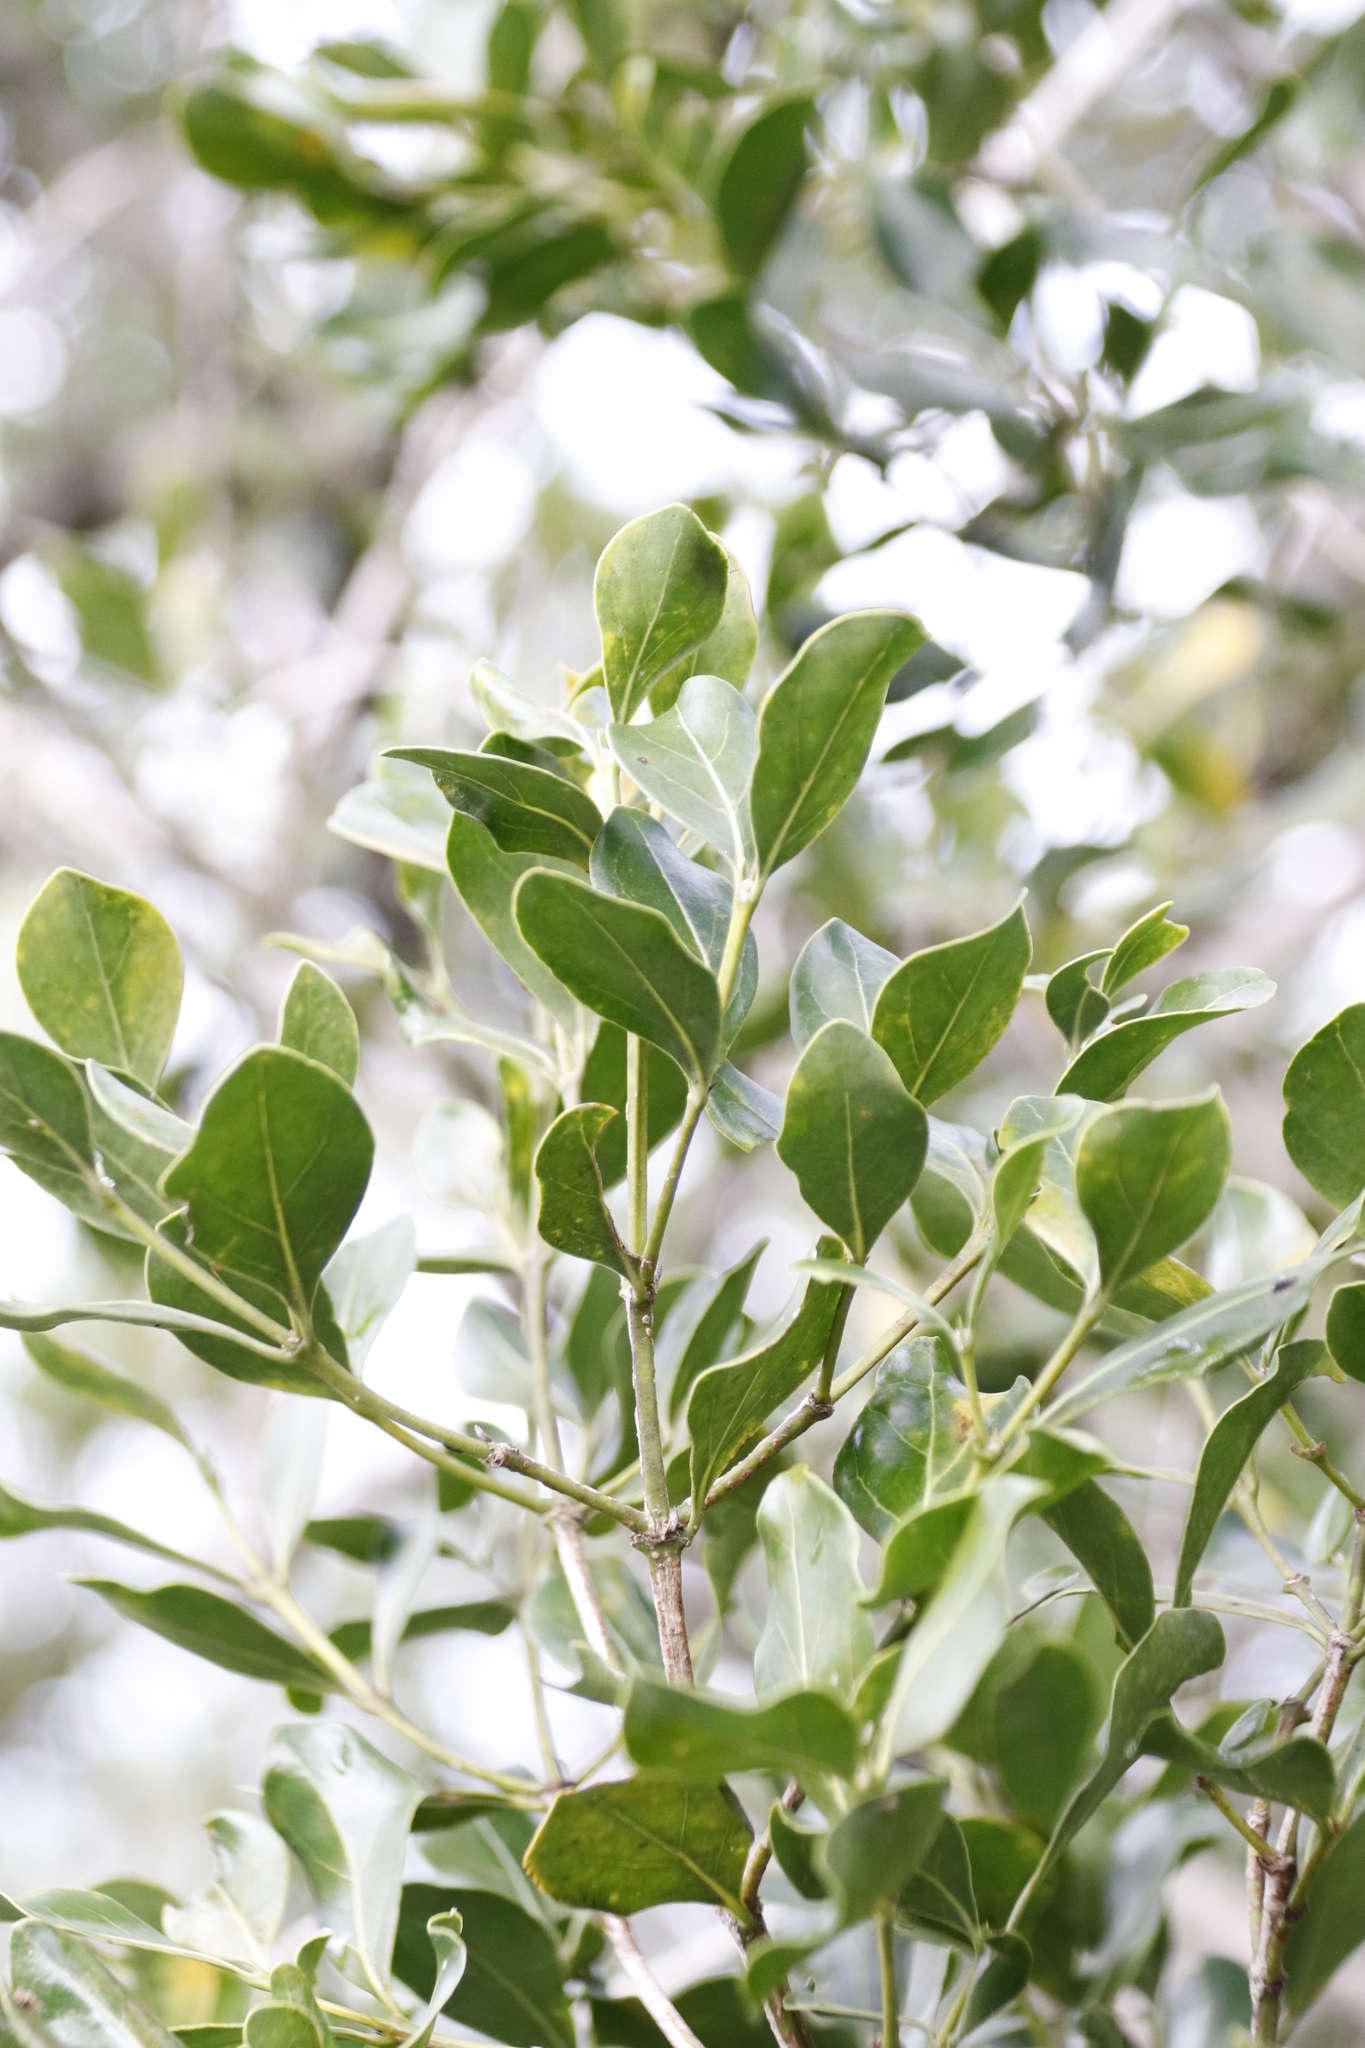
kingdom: Plantae
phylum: Tracheophyta
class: Magnoliopsida
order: Gentianales
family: Rubiaceae
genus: Psydrax
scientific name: Psydrax capensis
